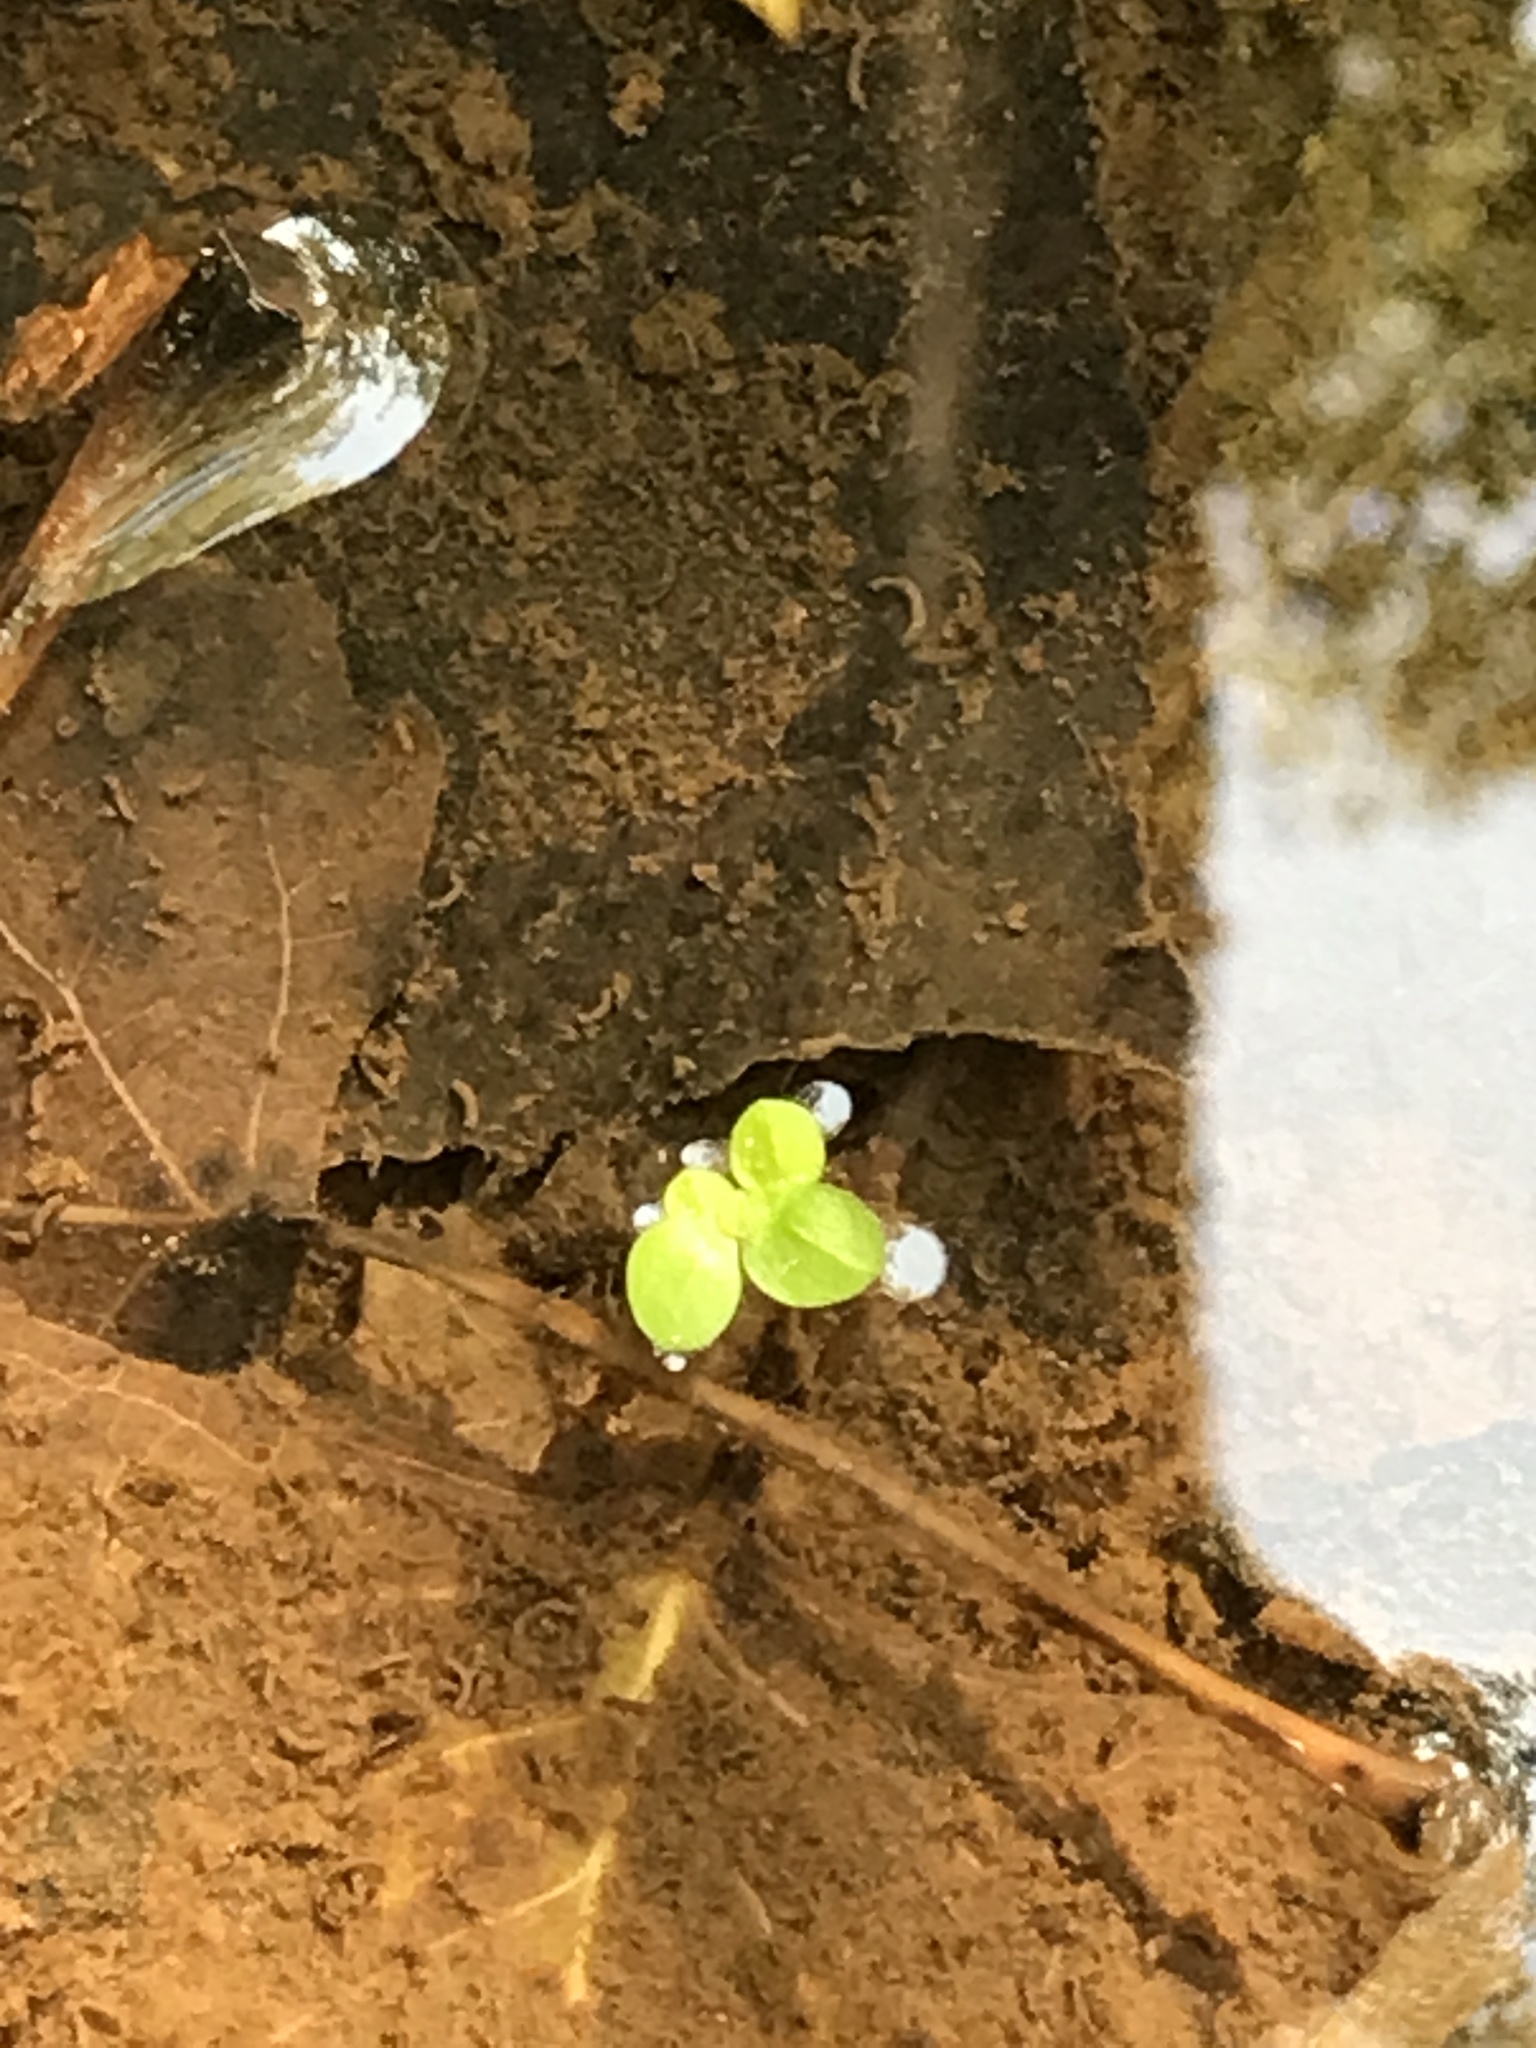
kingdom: Plantae
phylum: Tracheophyta
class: Liliopsida
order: Alismatales
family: Araceae
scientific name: Araceae
